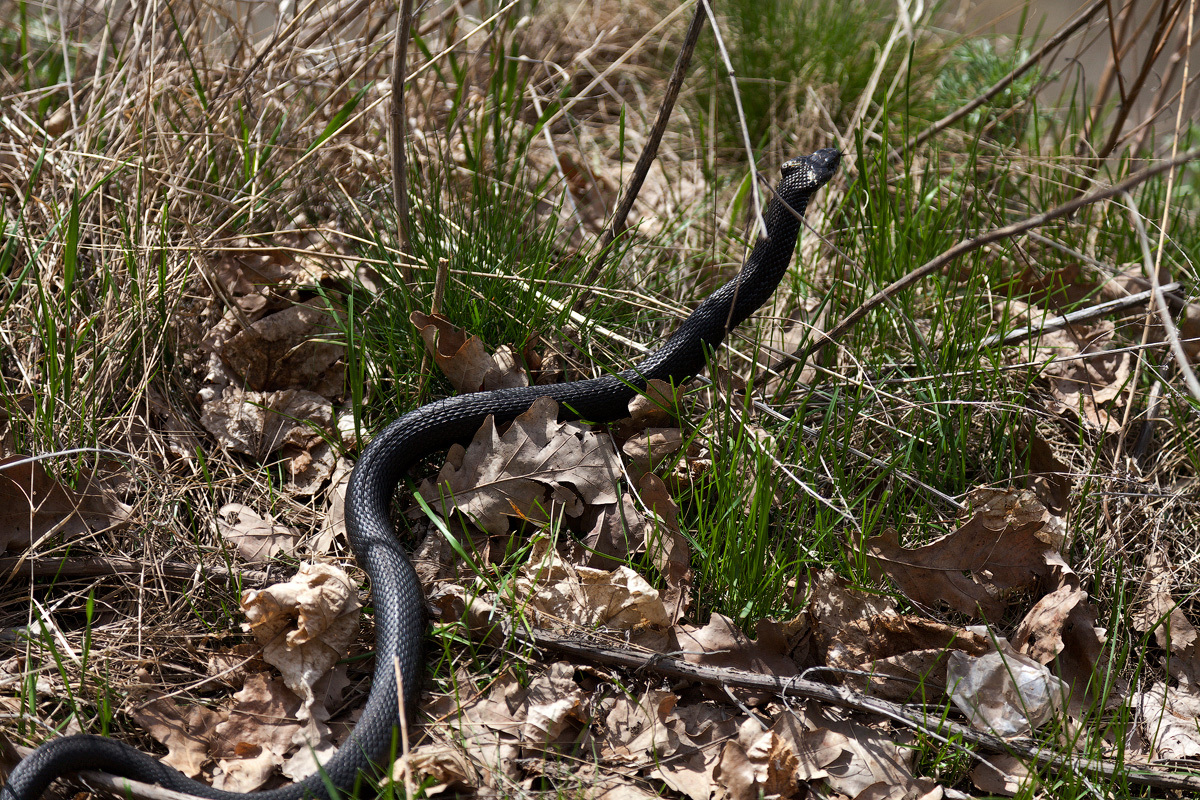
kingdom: Animalia
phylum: Chordata
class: Squamata
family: Colubridae
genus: Natrix
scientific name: Natrix natrix
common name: Grass snake
